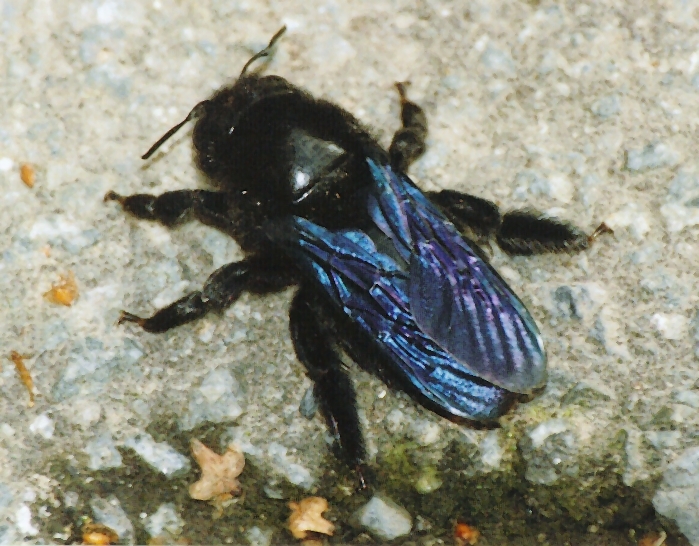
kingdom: Animalia
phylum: Arthropoda
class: Insecta
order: Hymenoptera
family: Apidae
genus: Xylocopa
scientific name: Xylocopa violacea
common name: Violet carpenter bee
